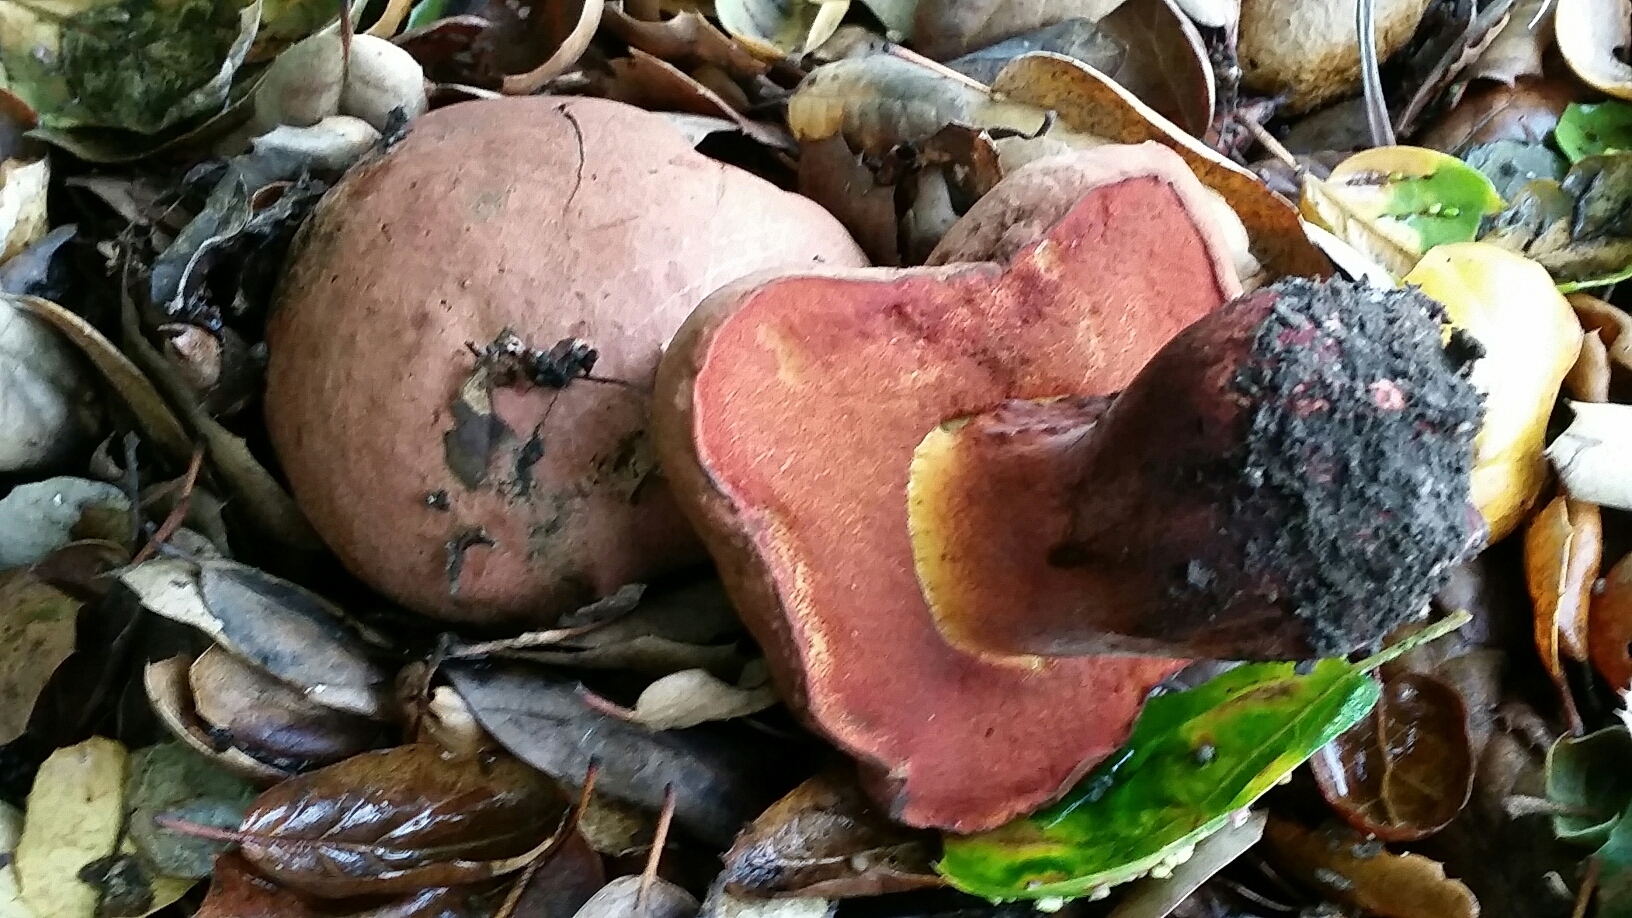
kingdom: Fungi
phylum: Basidiomycota
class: Agaricomycetes
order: Boletales
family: Boletaceae
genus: Suillellus
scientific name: Suillellus amygdalinus
